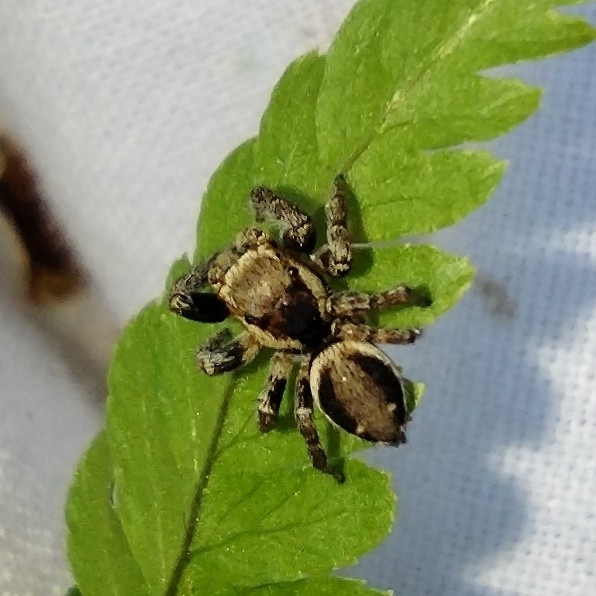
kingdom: Animalia
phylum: Arthropoda
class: Arachnida
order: Araneae
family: Salticidae
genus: Evarcha
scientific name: Evarcha falcata
